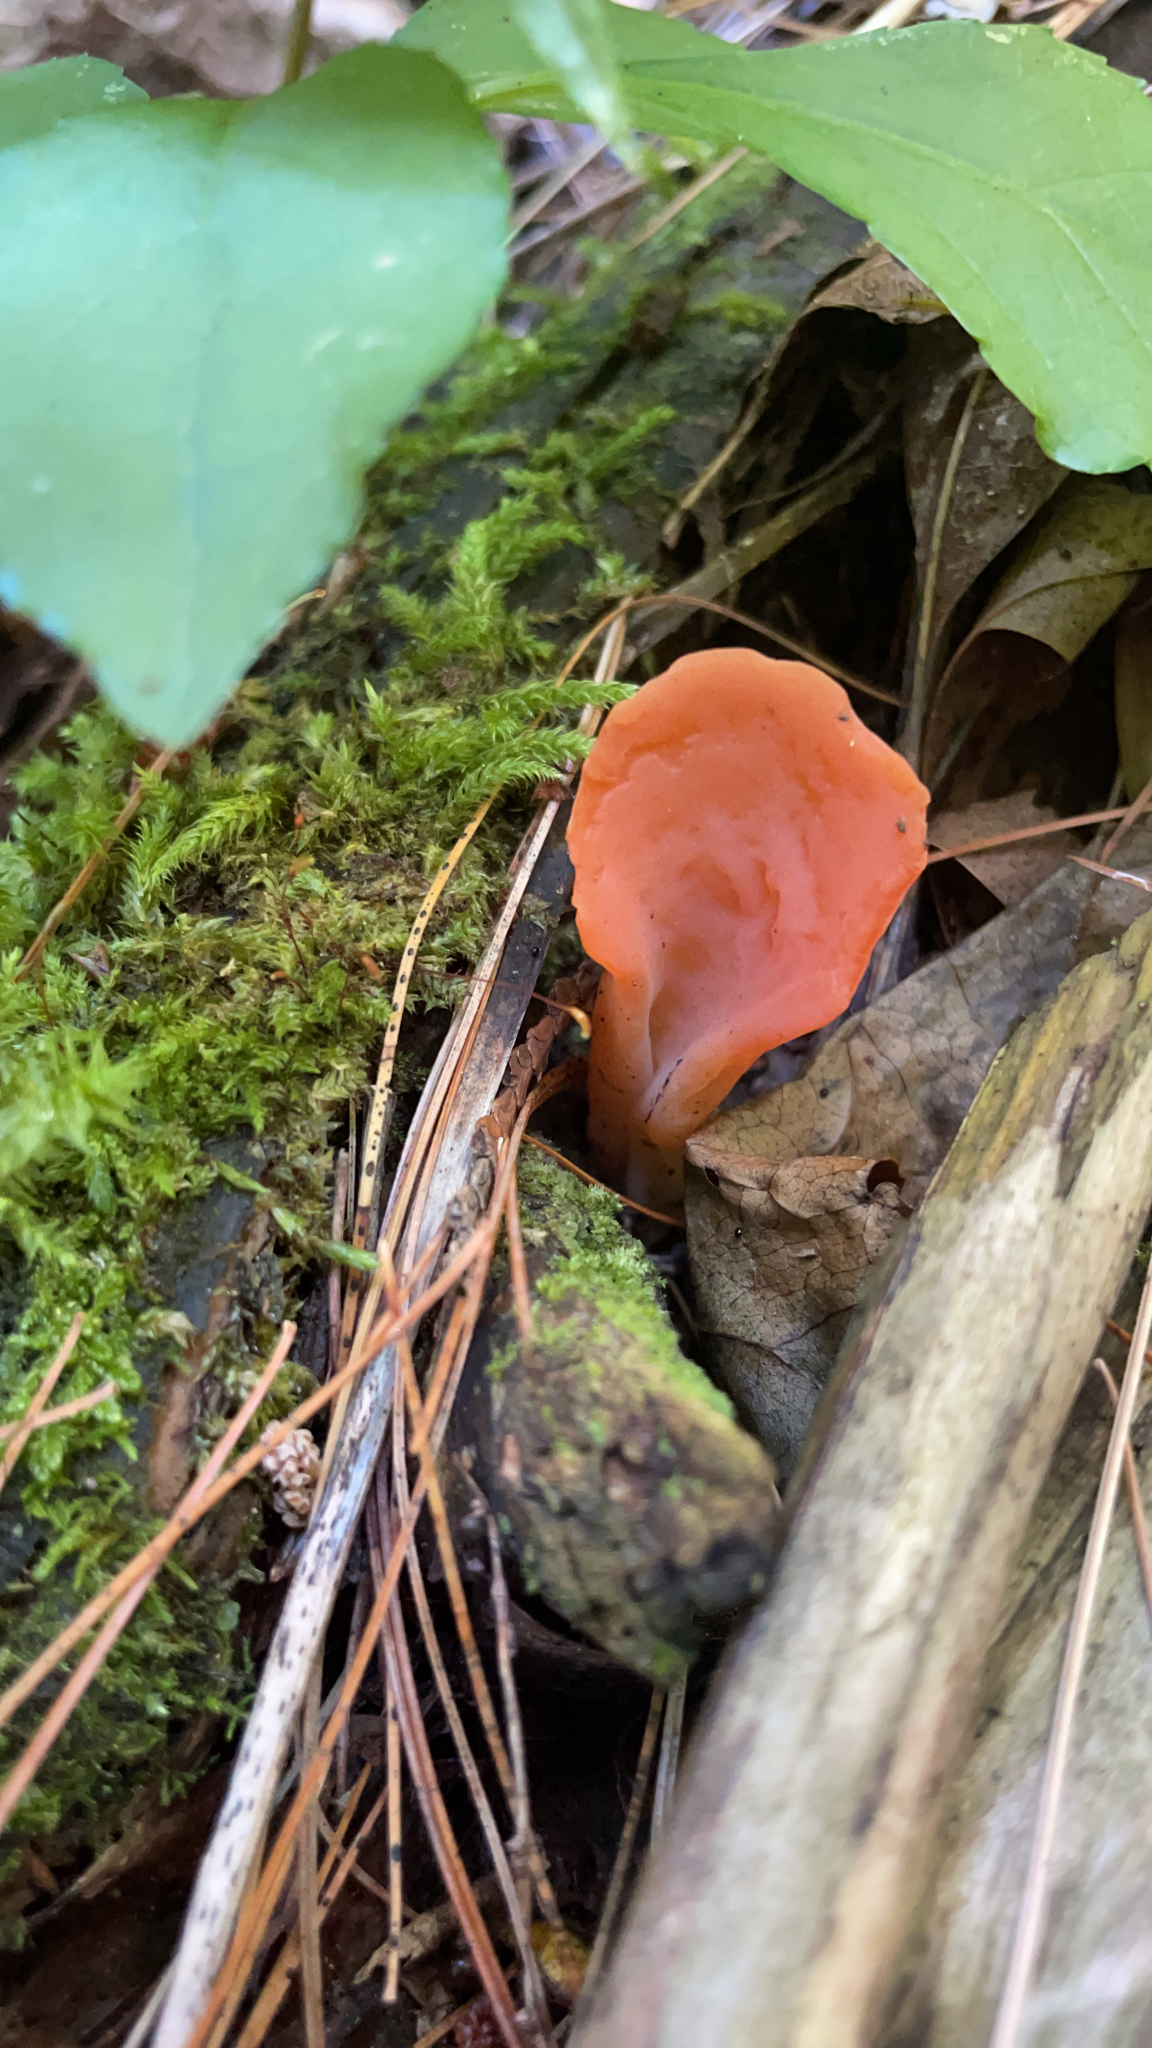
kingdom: Fungi
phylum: Basidiomycota
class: Agaricomycetes
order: Auriculariales
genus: Guepinia
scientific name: Guepinia helvelloides
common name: Salmon salad
